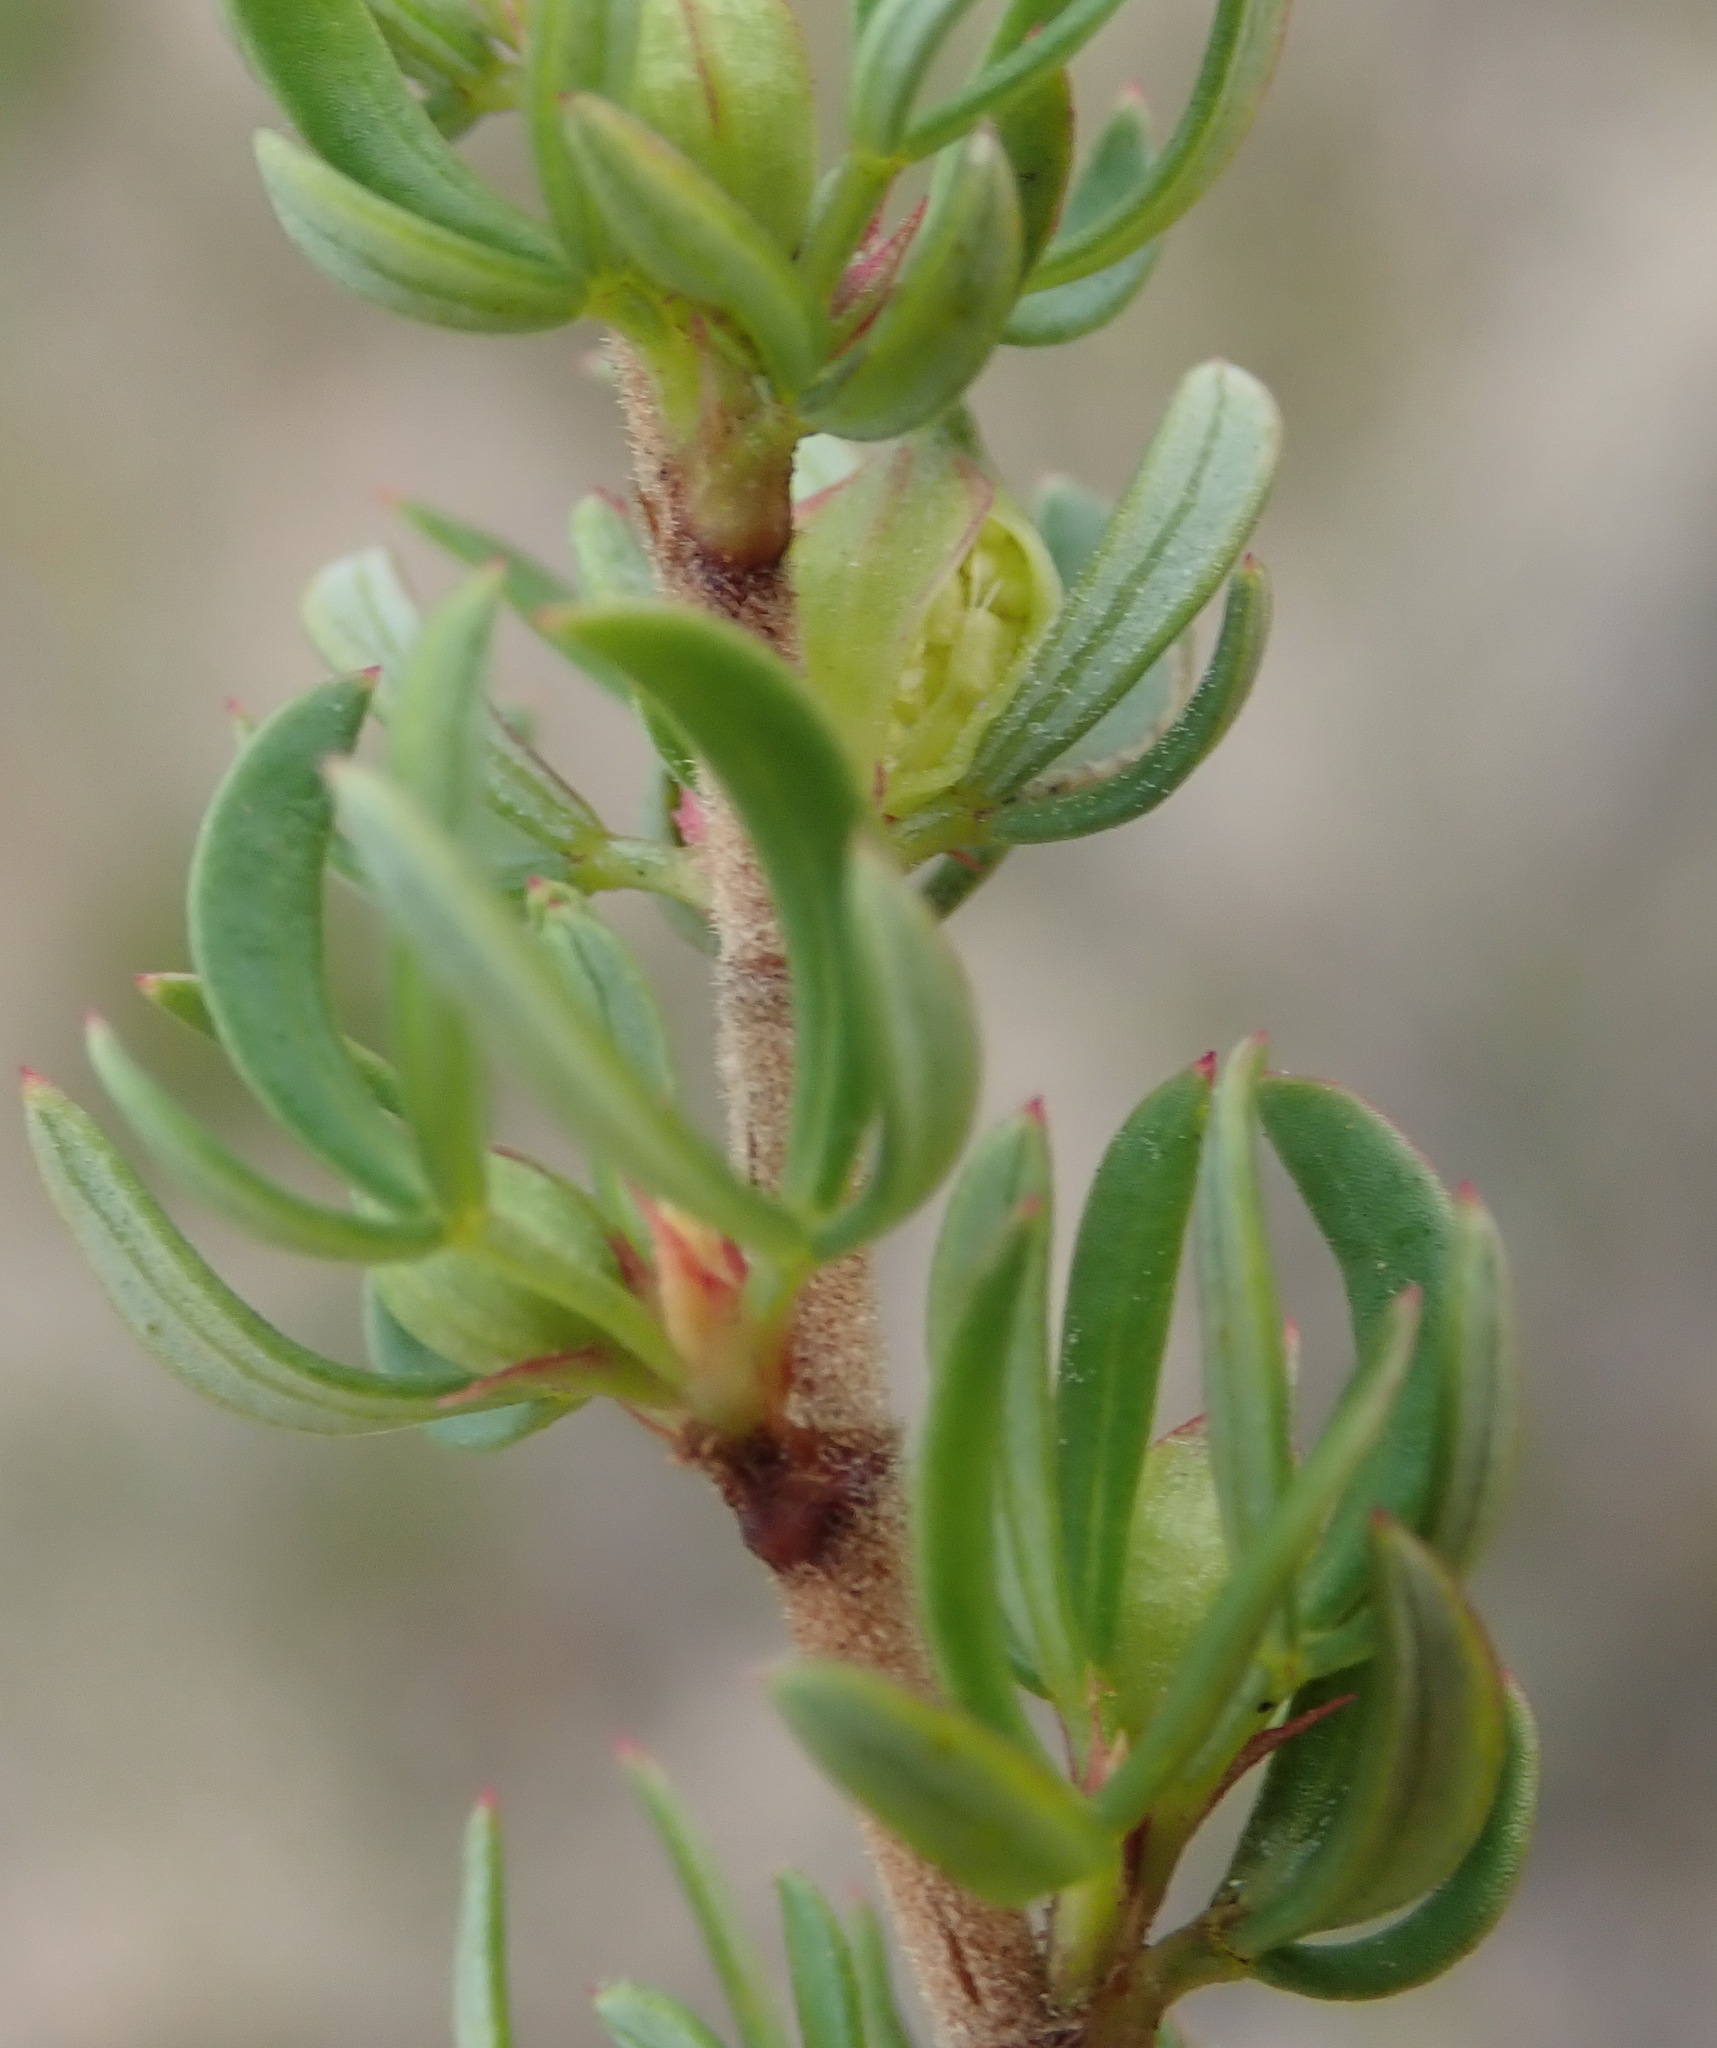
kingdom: Plantae
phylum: Tracheophyta
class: Magnoliopsida
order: Rosales
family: Rosaceae
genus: Cliffortia
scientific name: Cliffortia falcata
